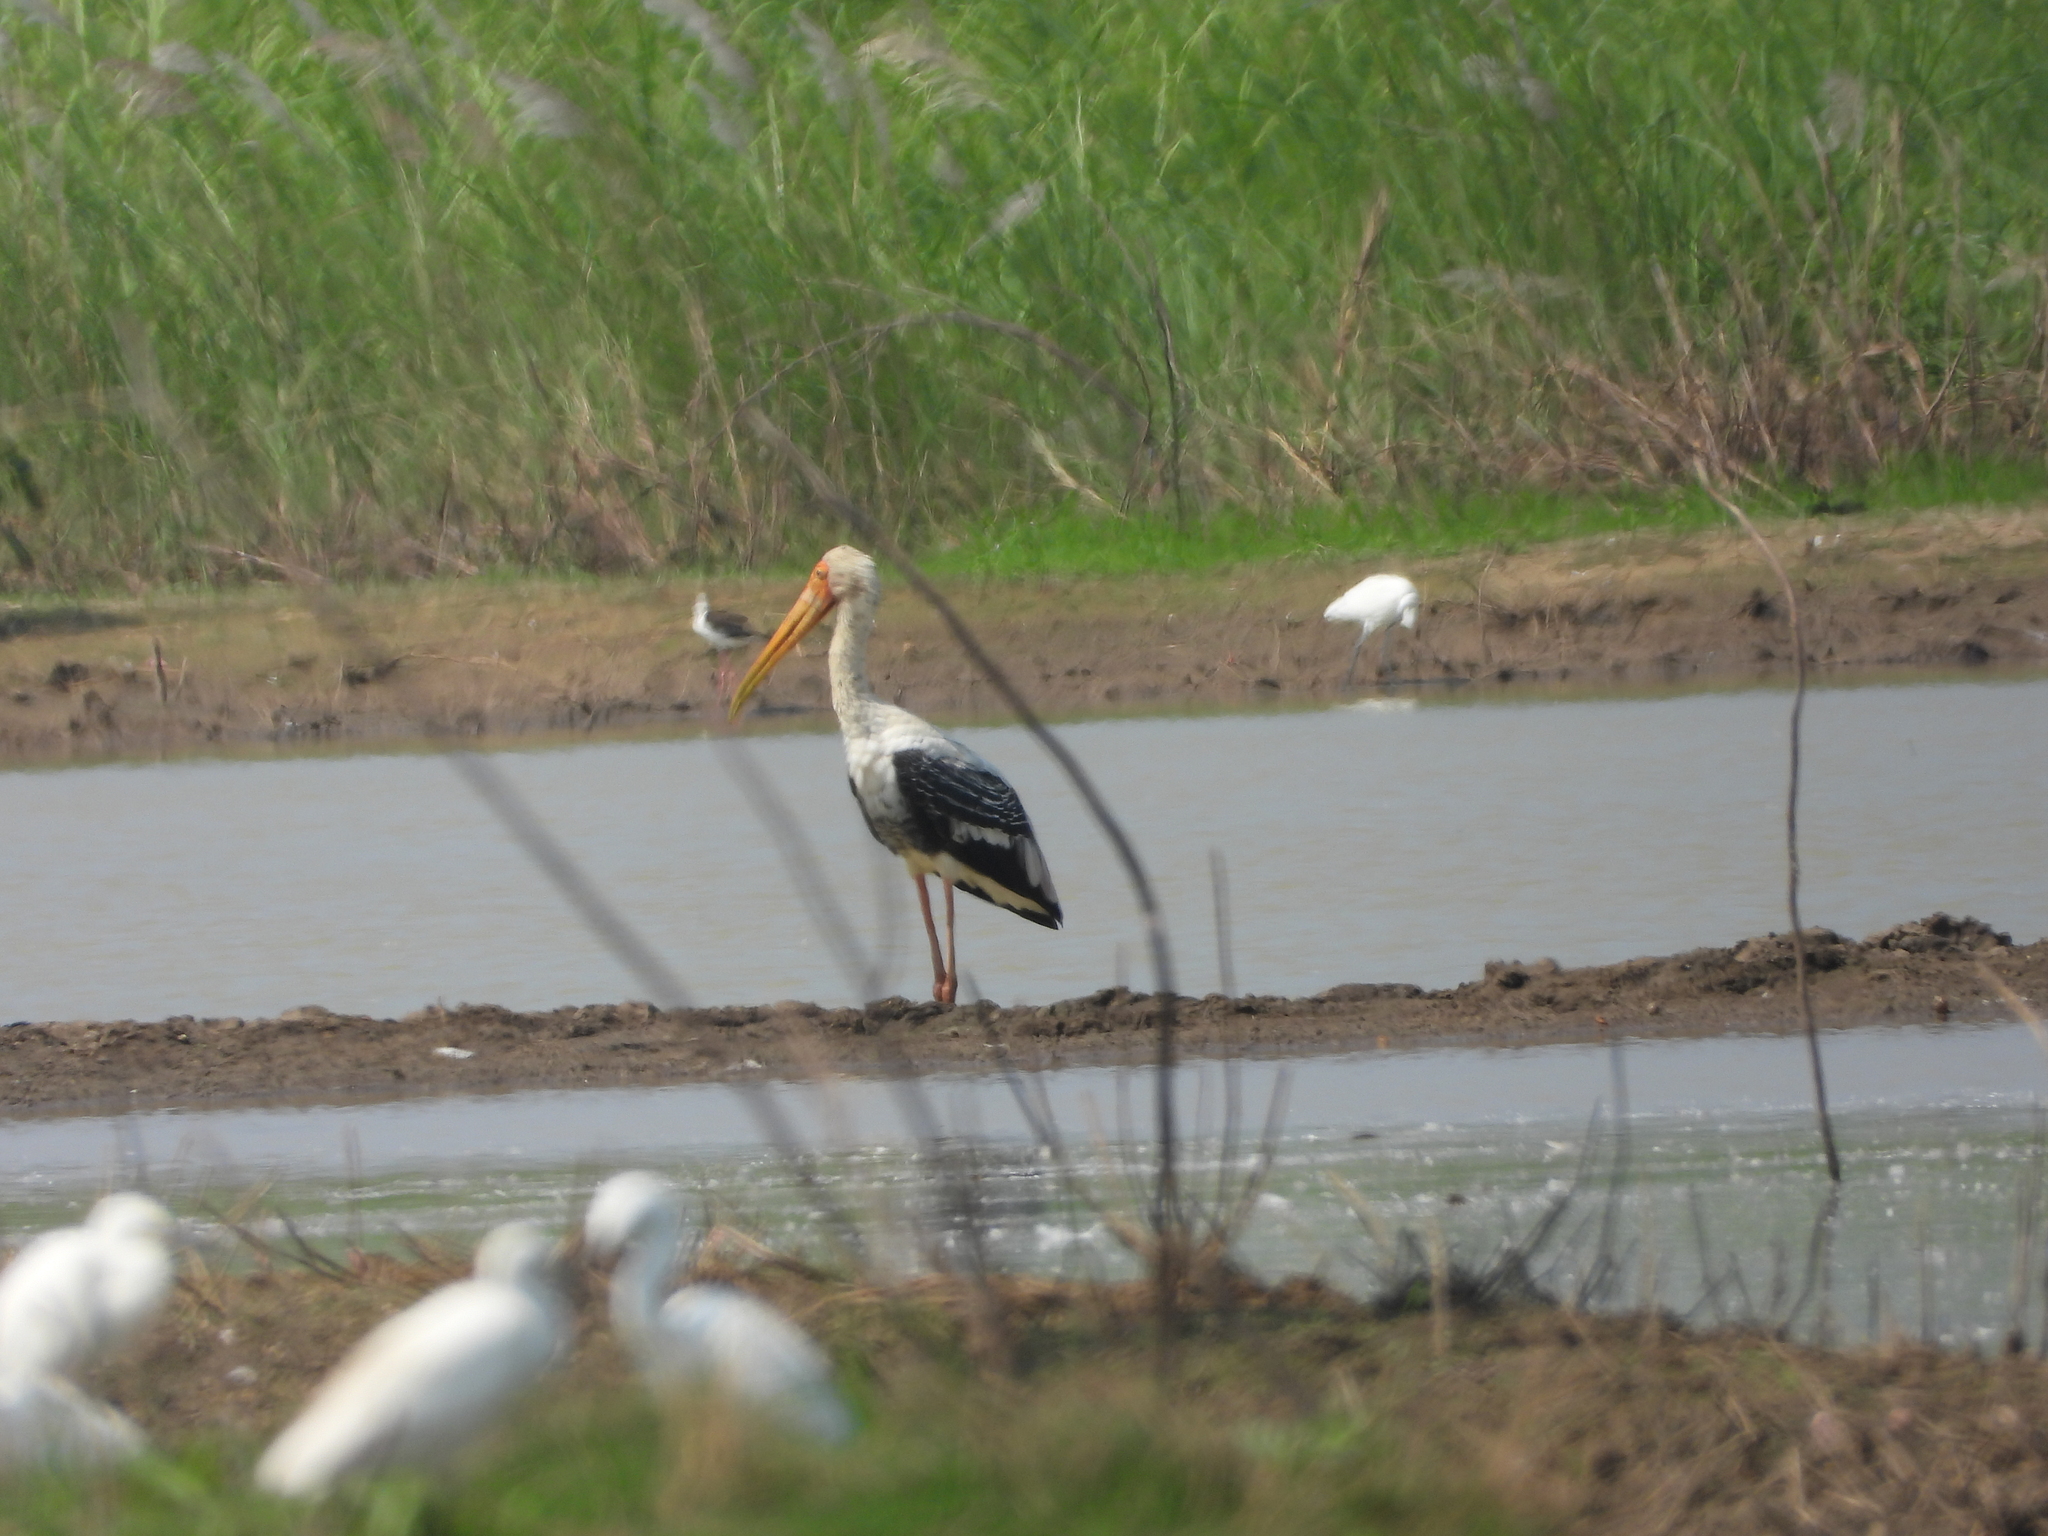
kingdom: Animalia
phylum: Chordata
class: Aves
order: Ciconiiformes
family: Ciconiidae
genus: Mycteria
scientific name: Mycteria leucocephala
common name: Painted stork
